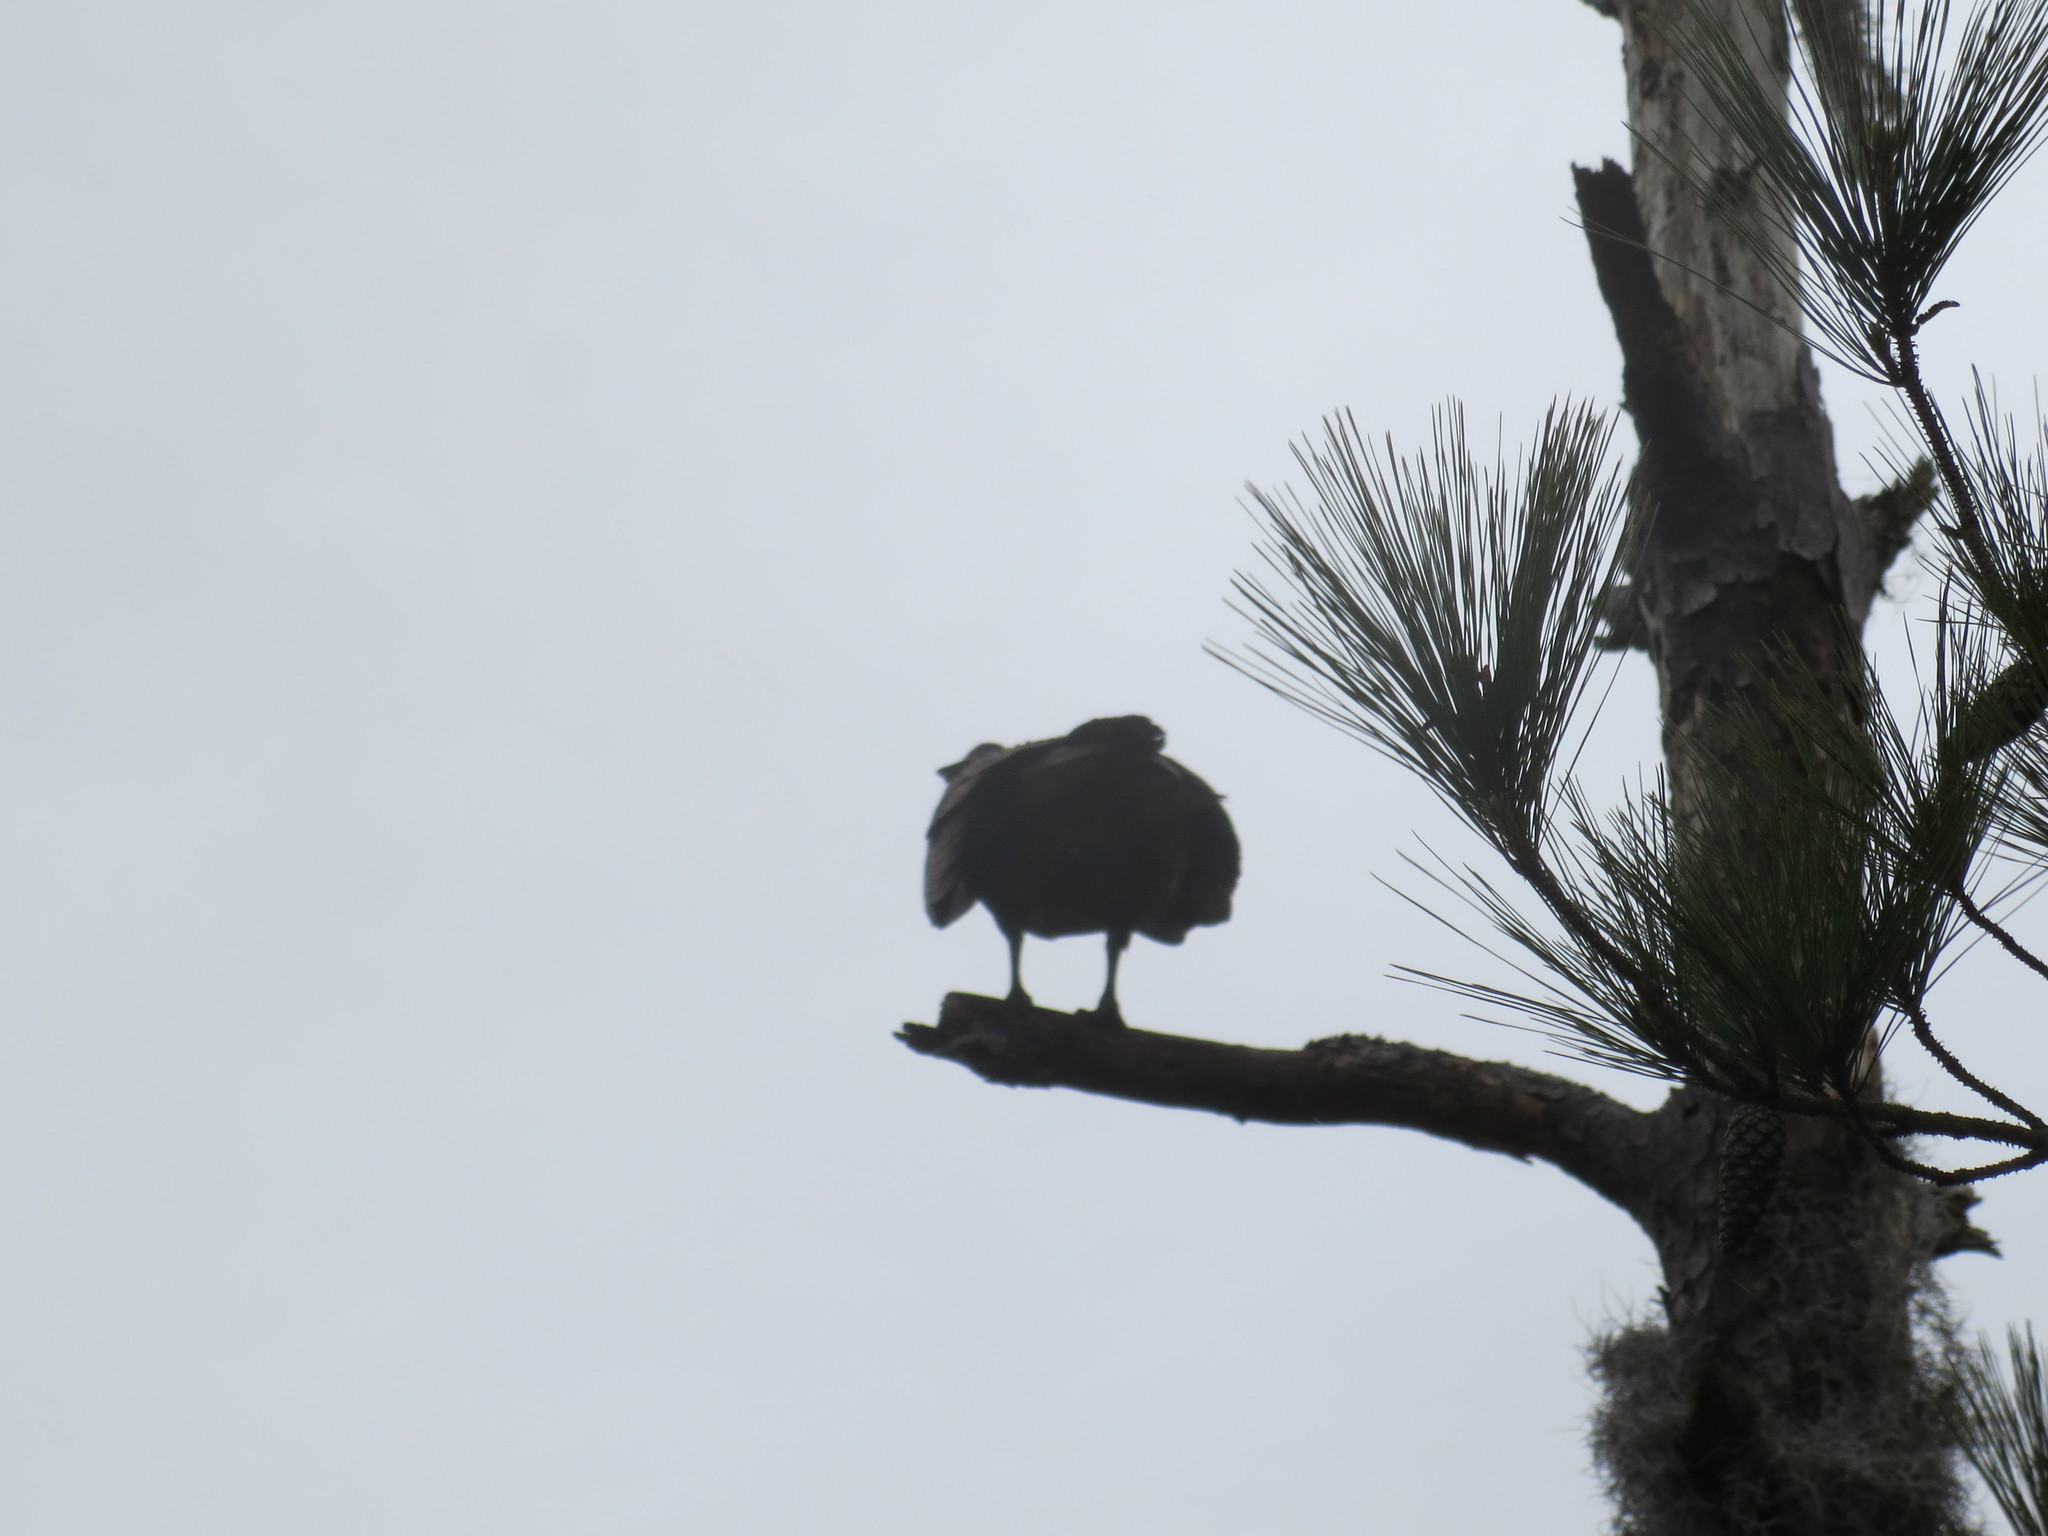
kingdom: Animalia
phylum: Chordata
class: Aves
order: Accipitriformes
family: Cathartidae
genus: Cathartes
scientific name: Cathartes aura
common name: Turkey vulture
